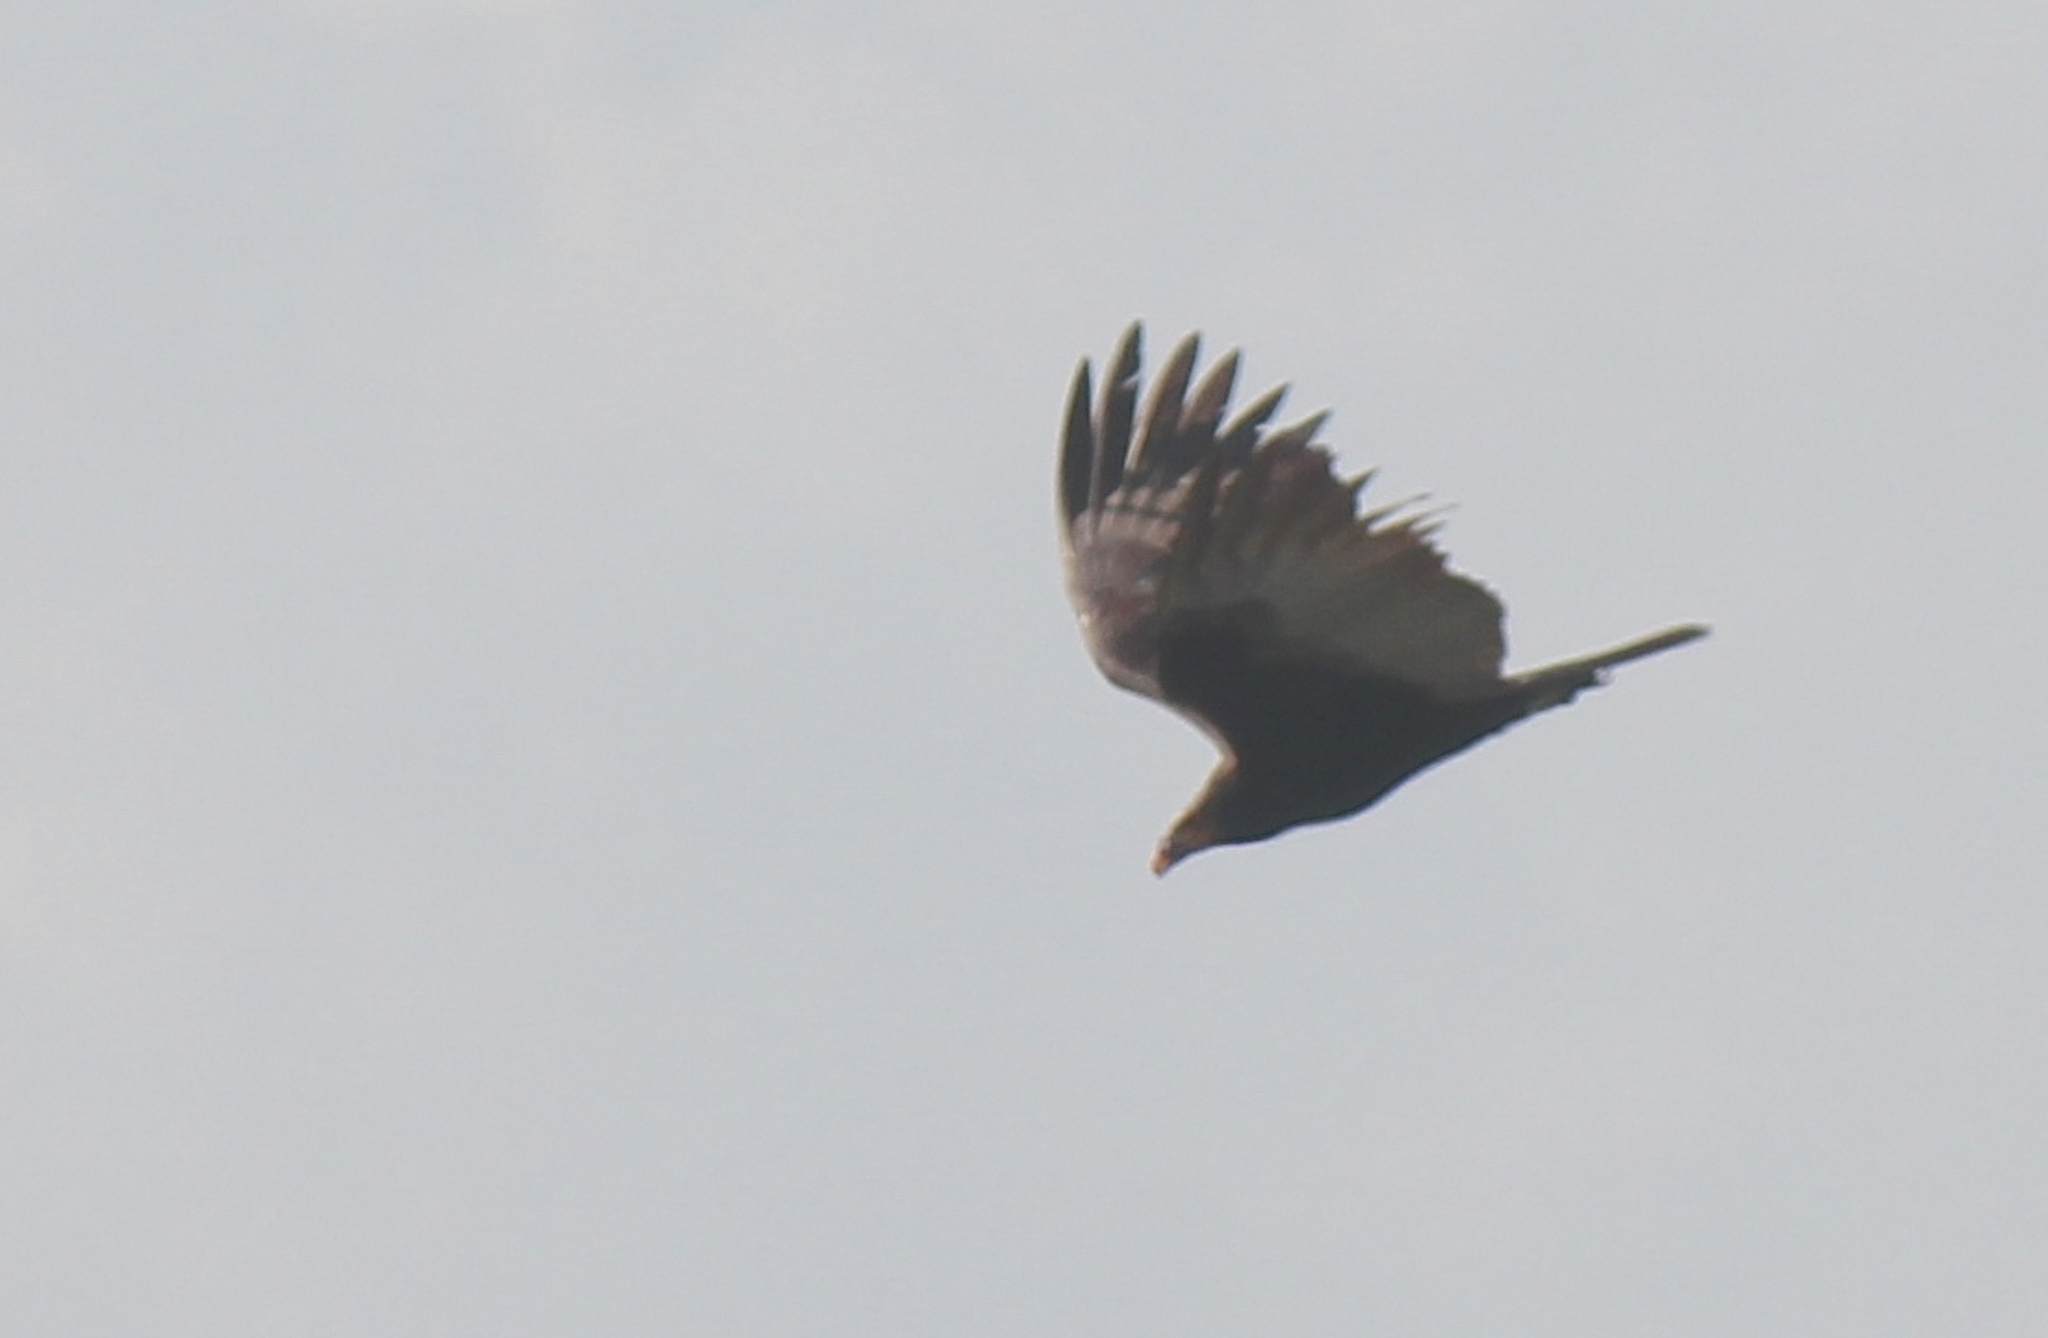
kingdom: Animalia
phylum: Chordata
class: Aves
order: Accipitriformes
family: Cathartidae
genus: Cathartes
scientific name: Cathartes burrovianus
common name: Lesser yellow-headed vulture
